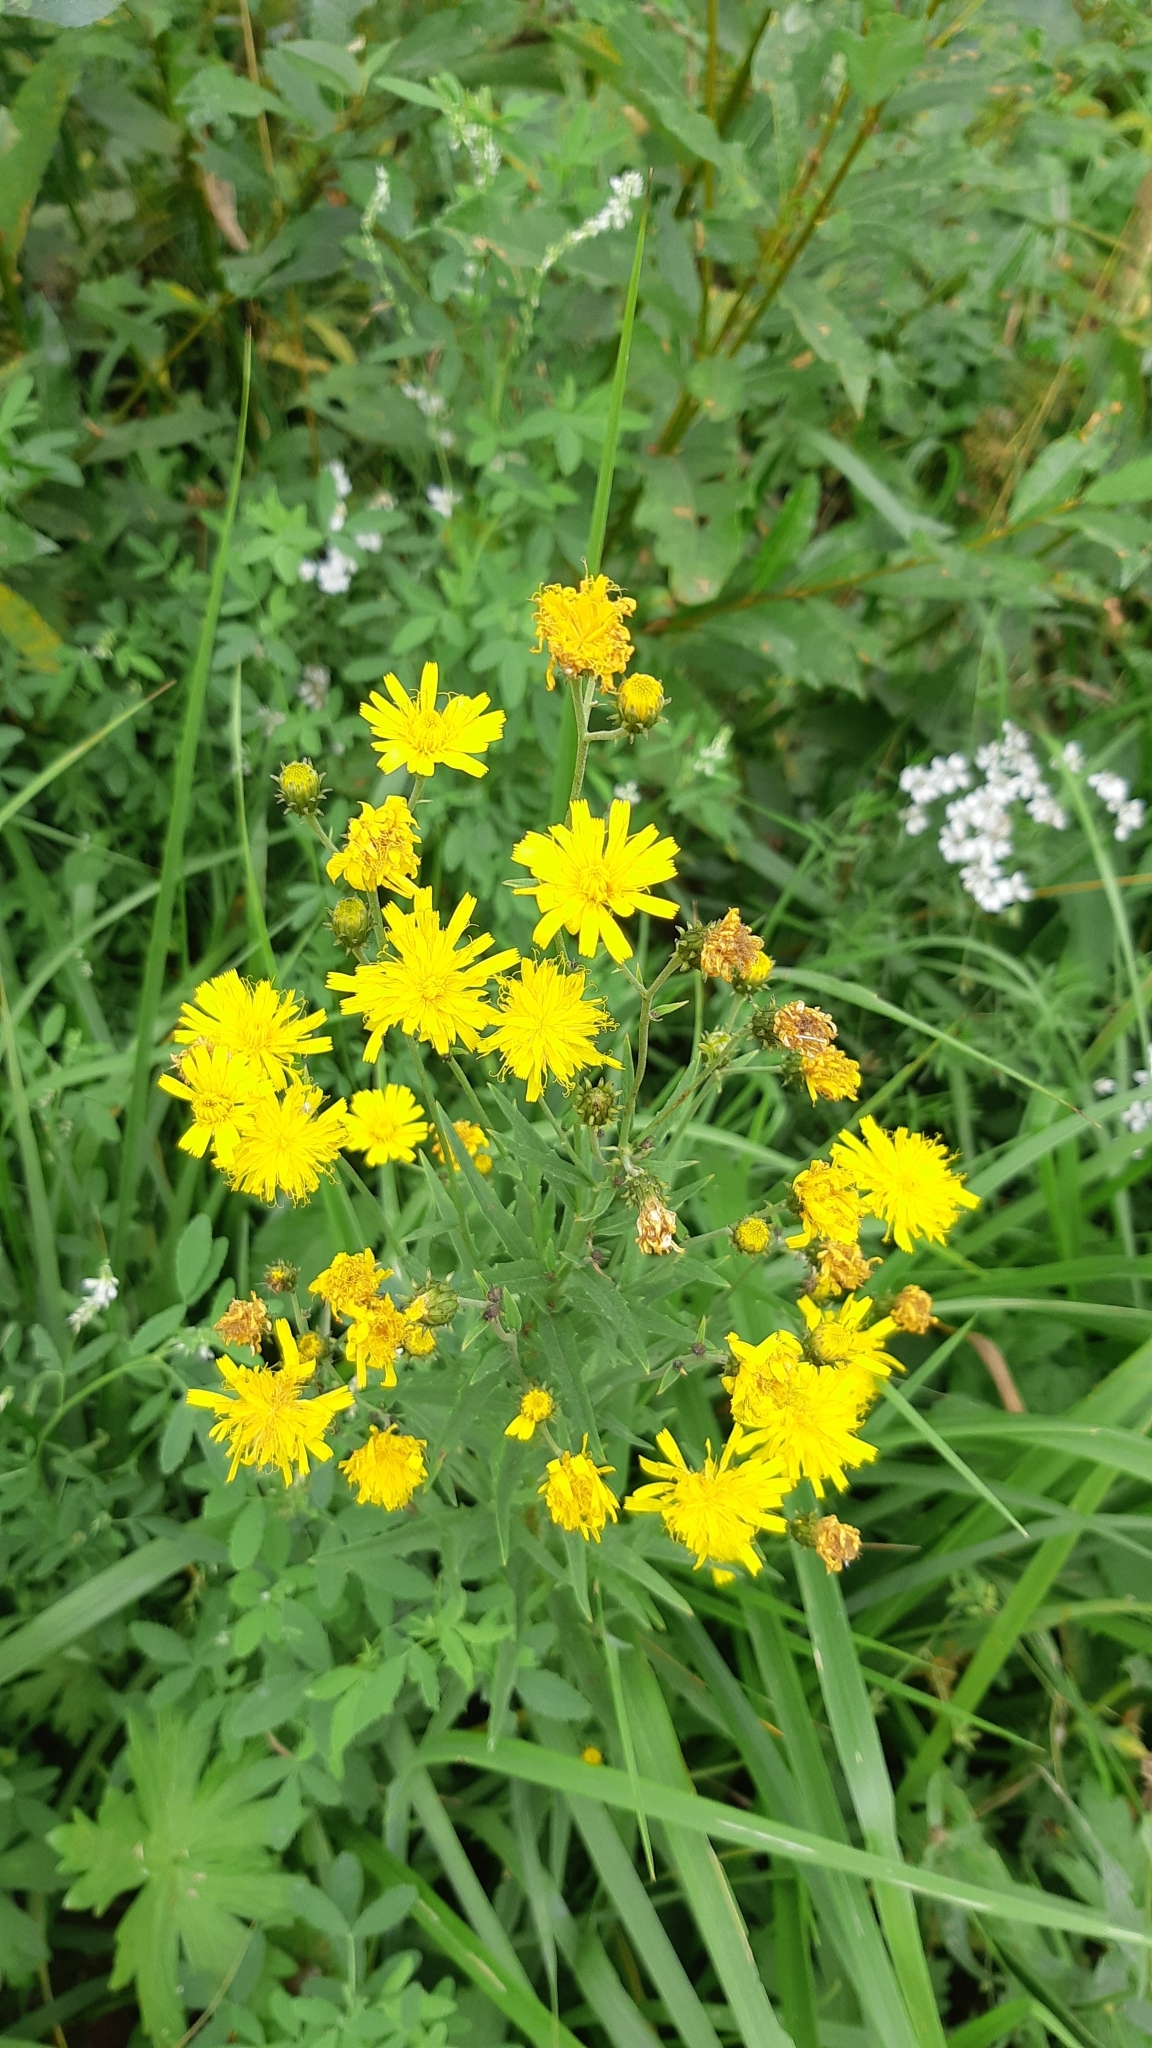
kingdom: Plantae
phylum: Tracheophyta
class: Magnoliopsida
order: Asterales
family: Asteraceae
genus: Hieracium
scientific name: Hieracium umbellatum
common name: Northern hawkweed
